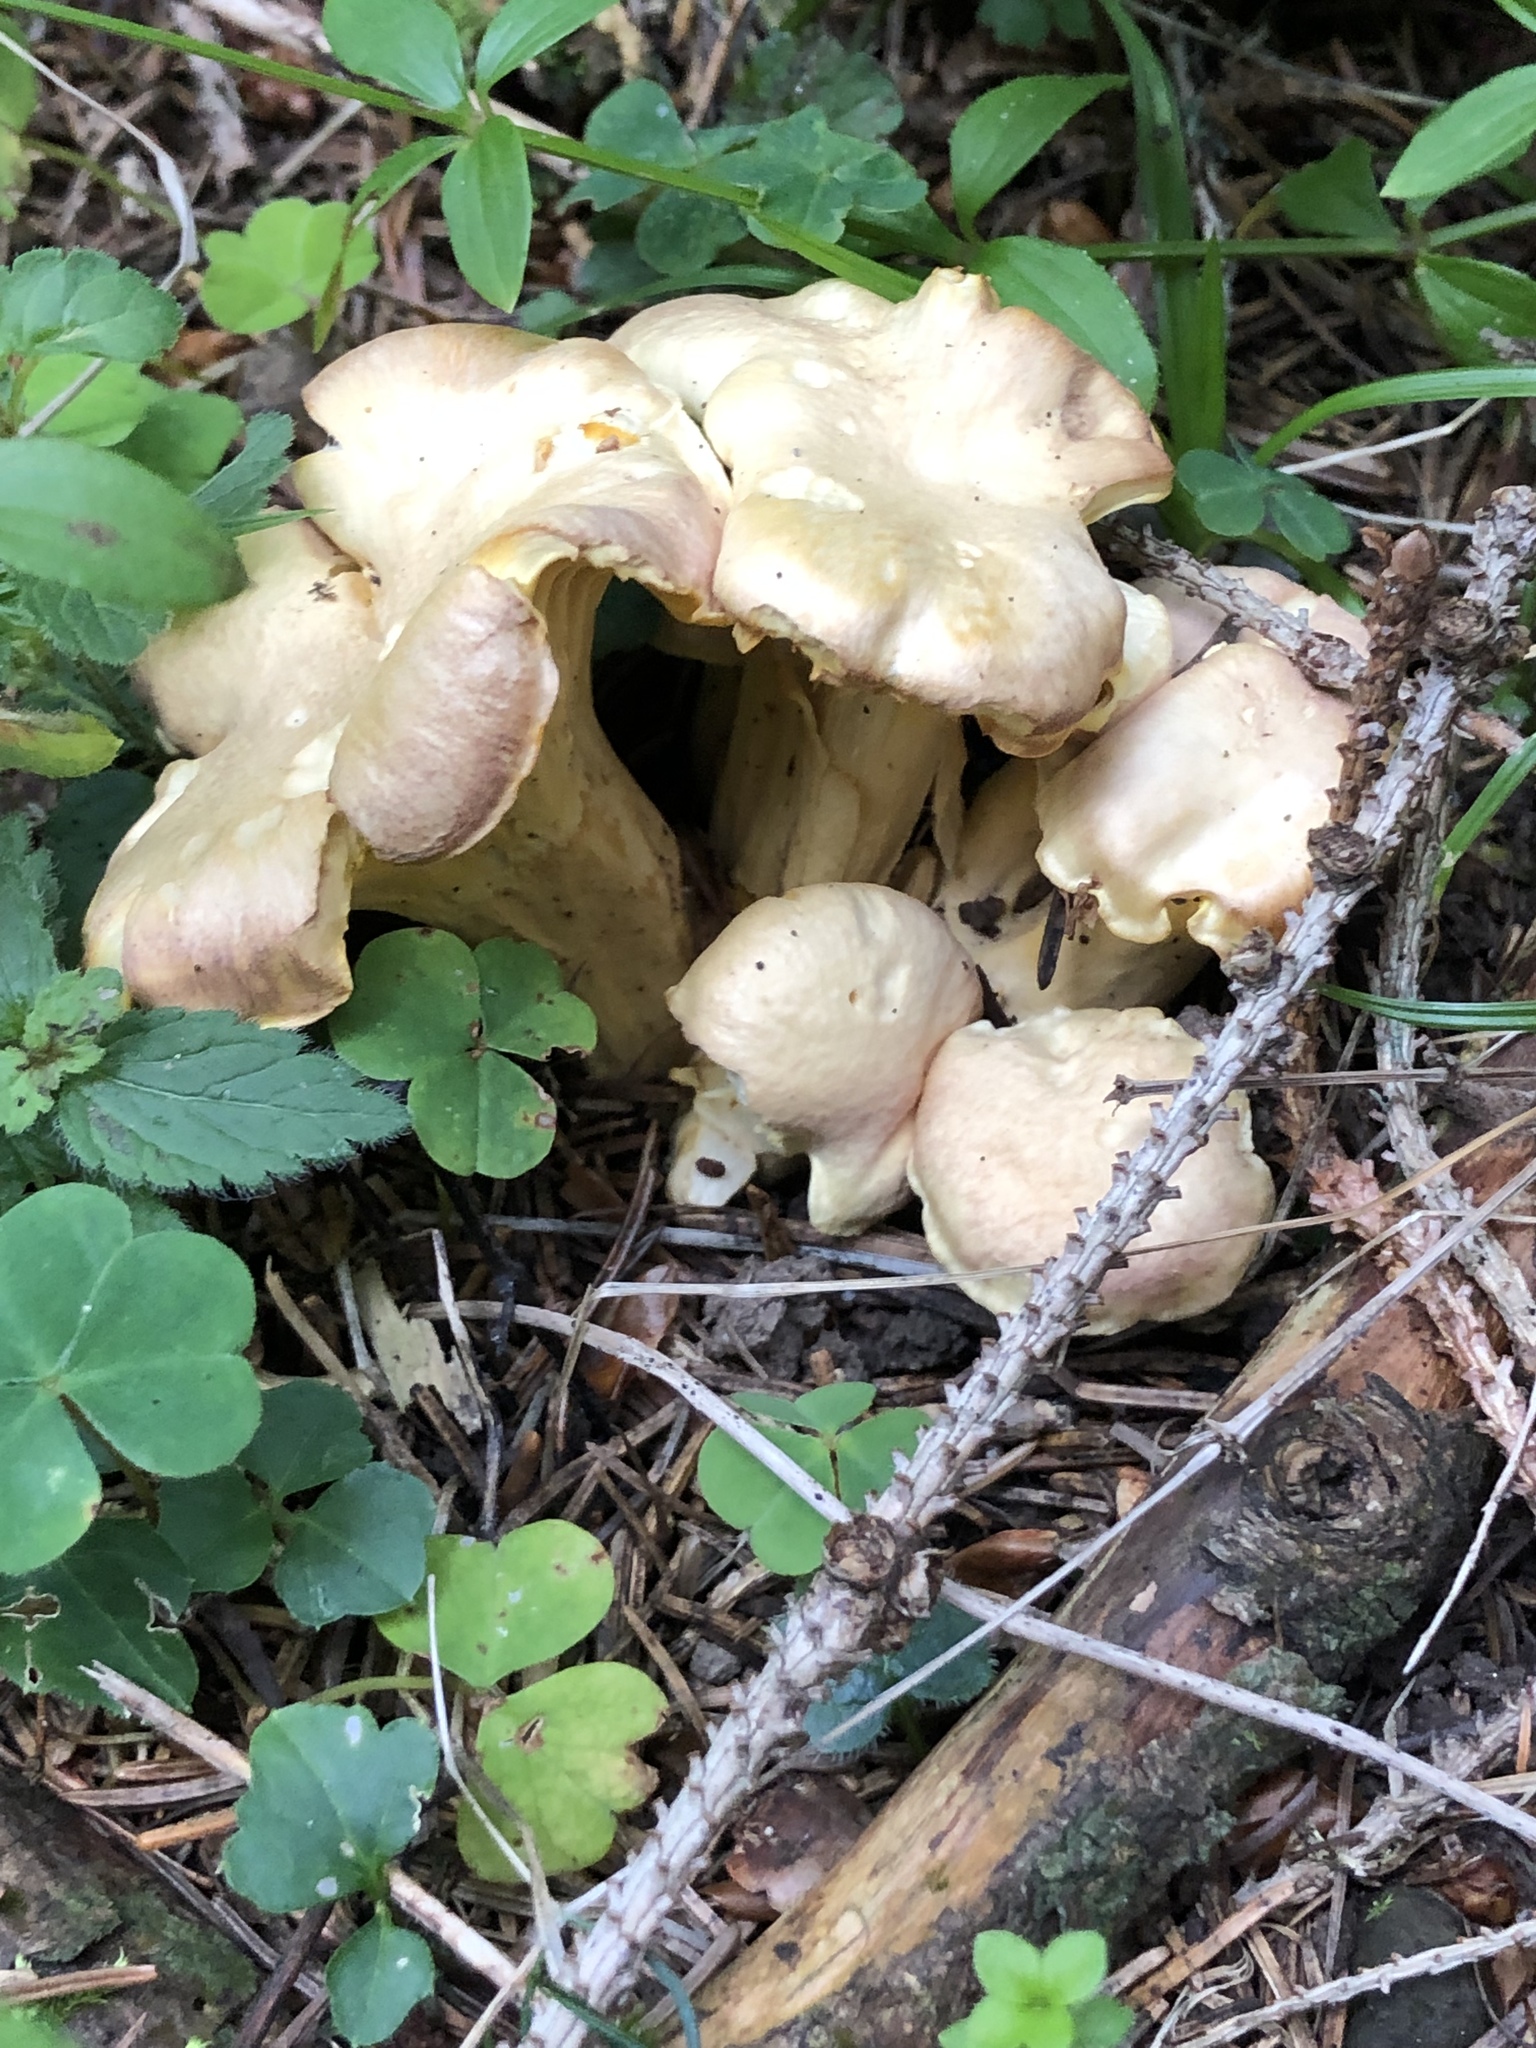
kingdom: Fungi
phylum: Basidiomycota
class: Agaricomycetes
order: Cantharellales
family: Hydnaceae
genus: Cantharellus
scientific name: Cantharellus amethysteus
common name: Amethyst chanterelle
